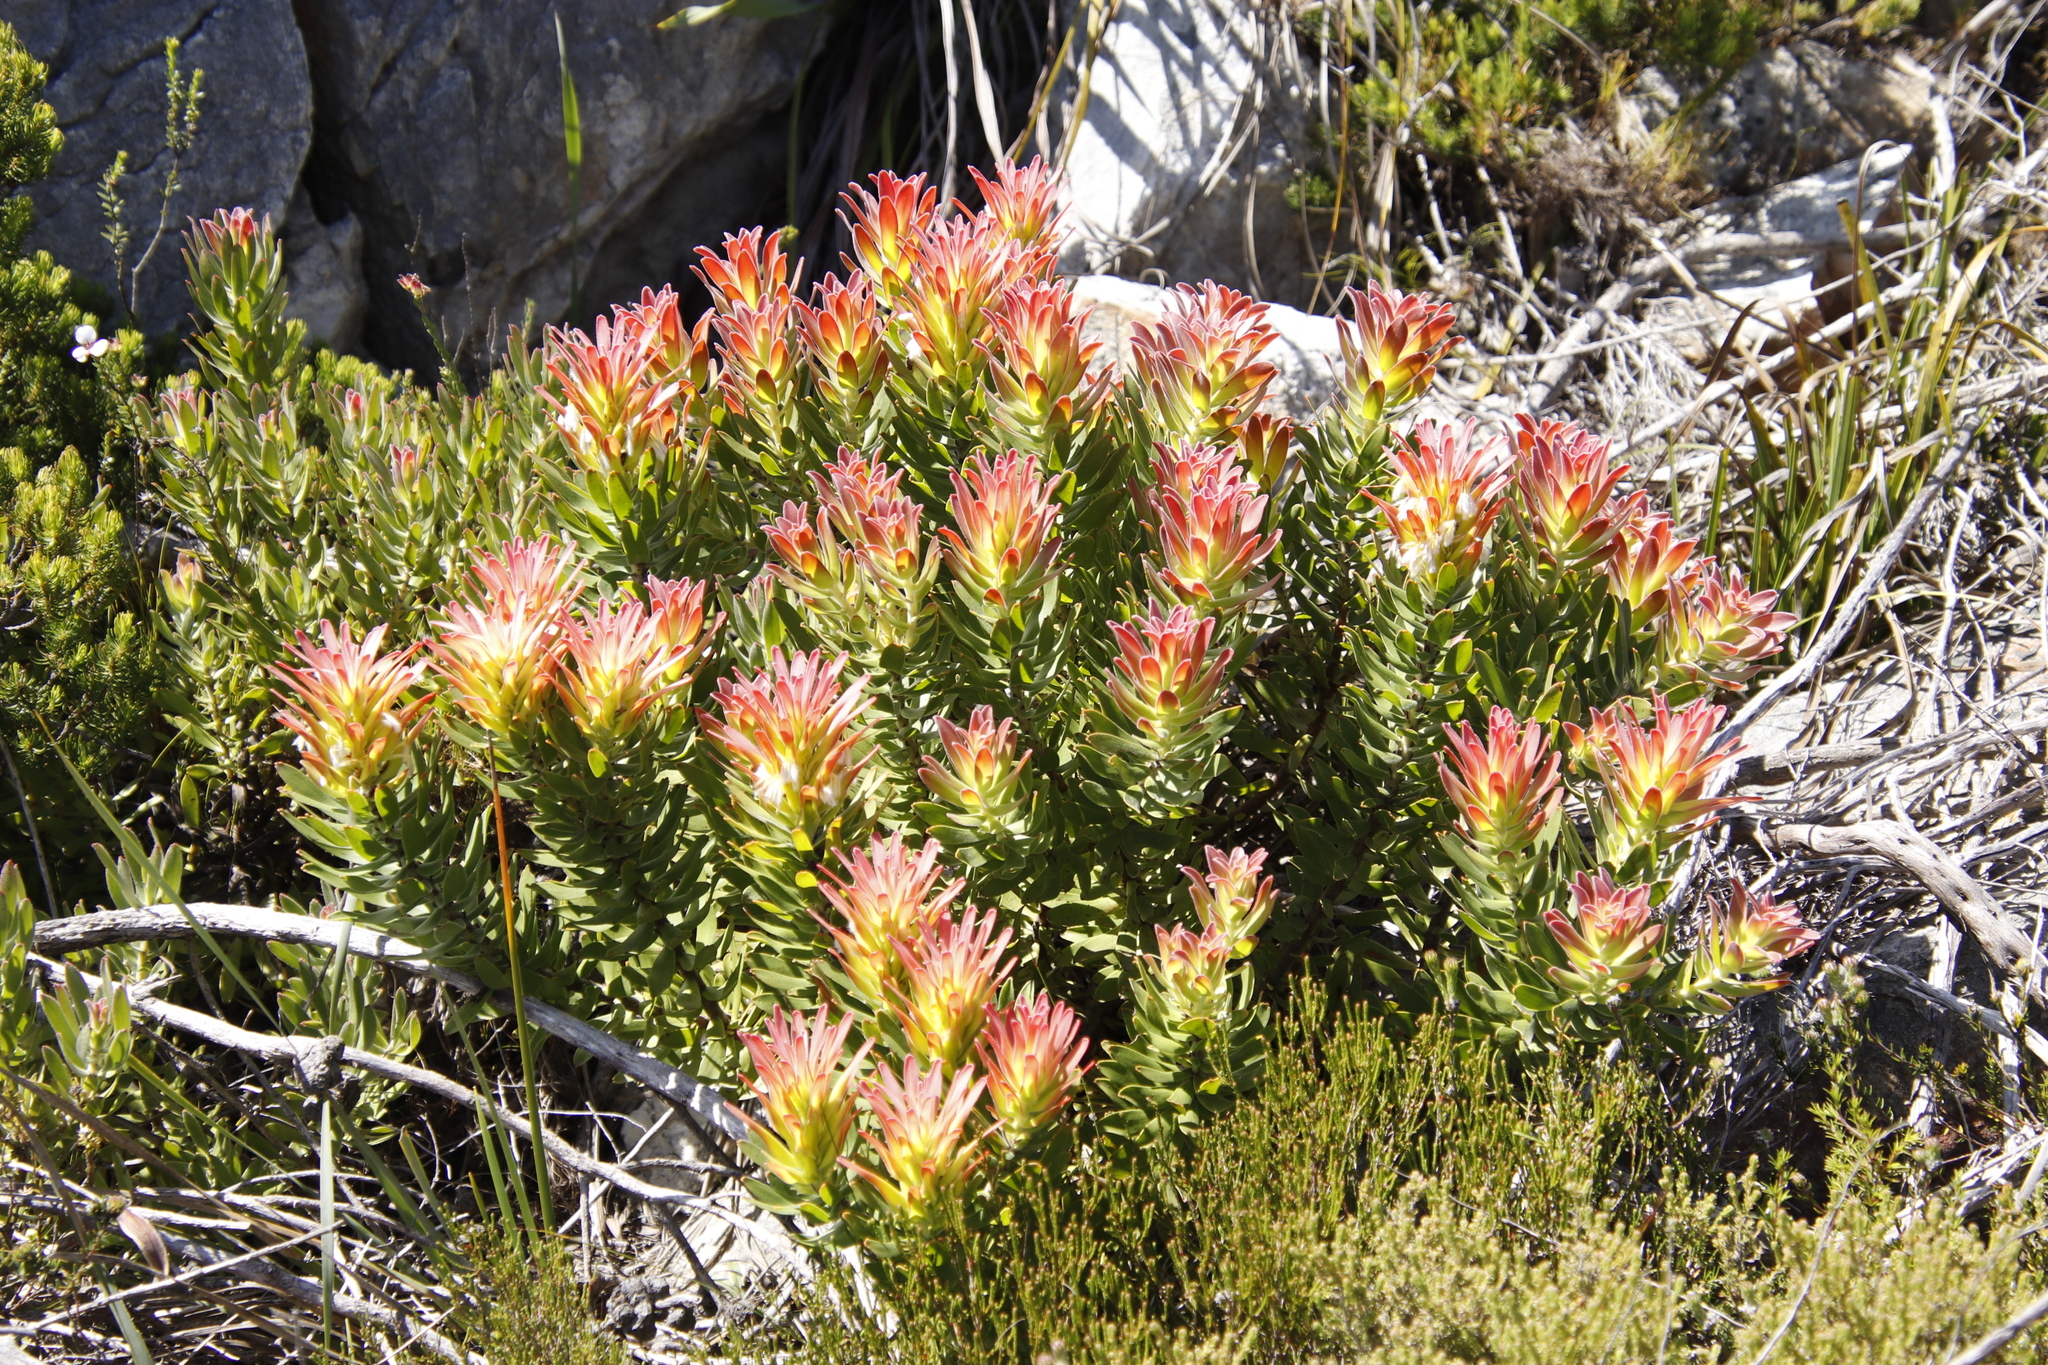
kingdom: Plantae
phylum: Tracheophyta
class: Magnoliopsida
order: Proteales
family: Proteaceae
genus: Mimetes
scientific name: Mimetes cucullatus
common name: Common pagoda
